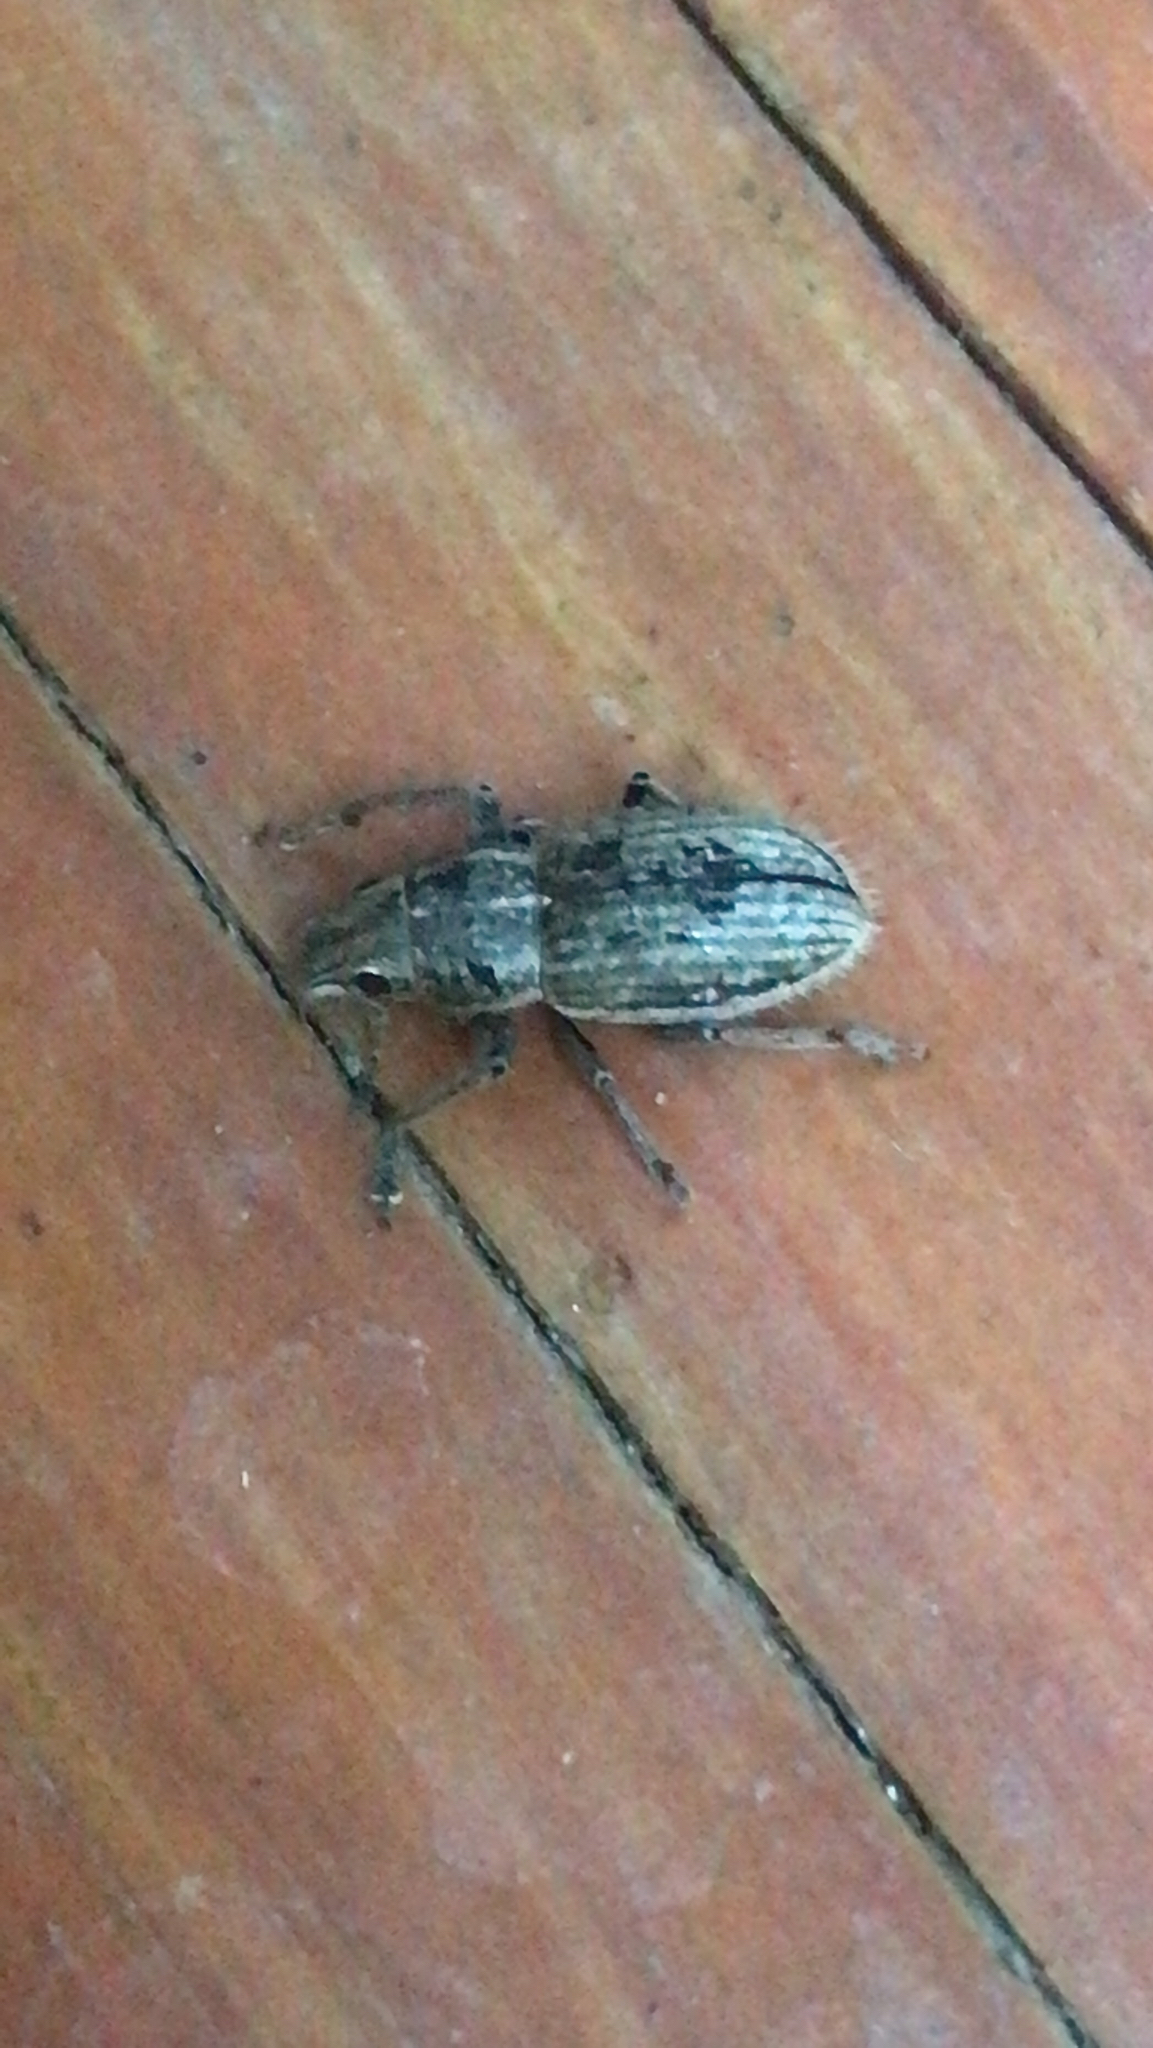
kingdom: Animalia
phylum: Arthropoda
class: Insecta
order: Coleoptera
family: Curculionidae
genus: Naupactus
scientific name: Naupactus leucoloma
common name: Whitefringed beetle
